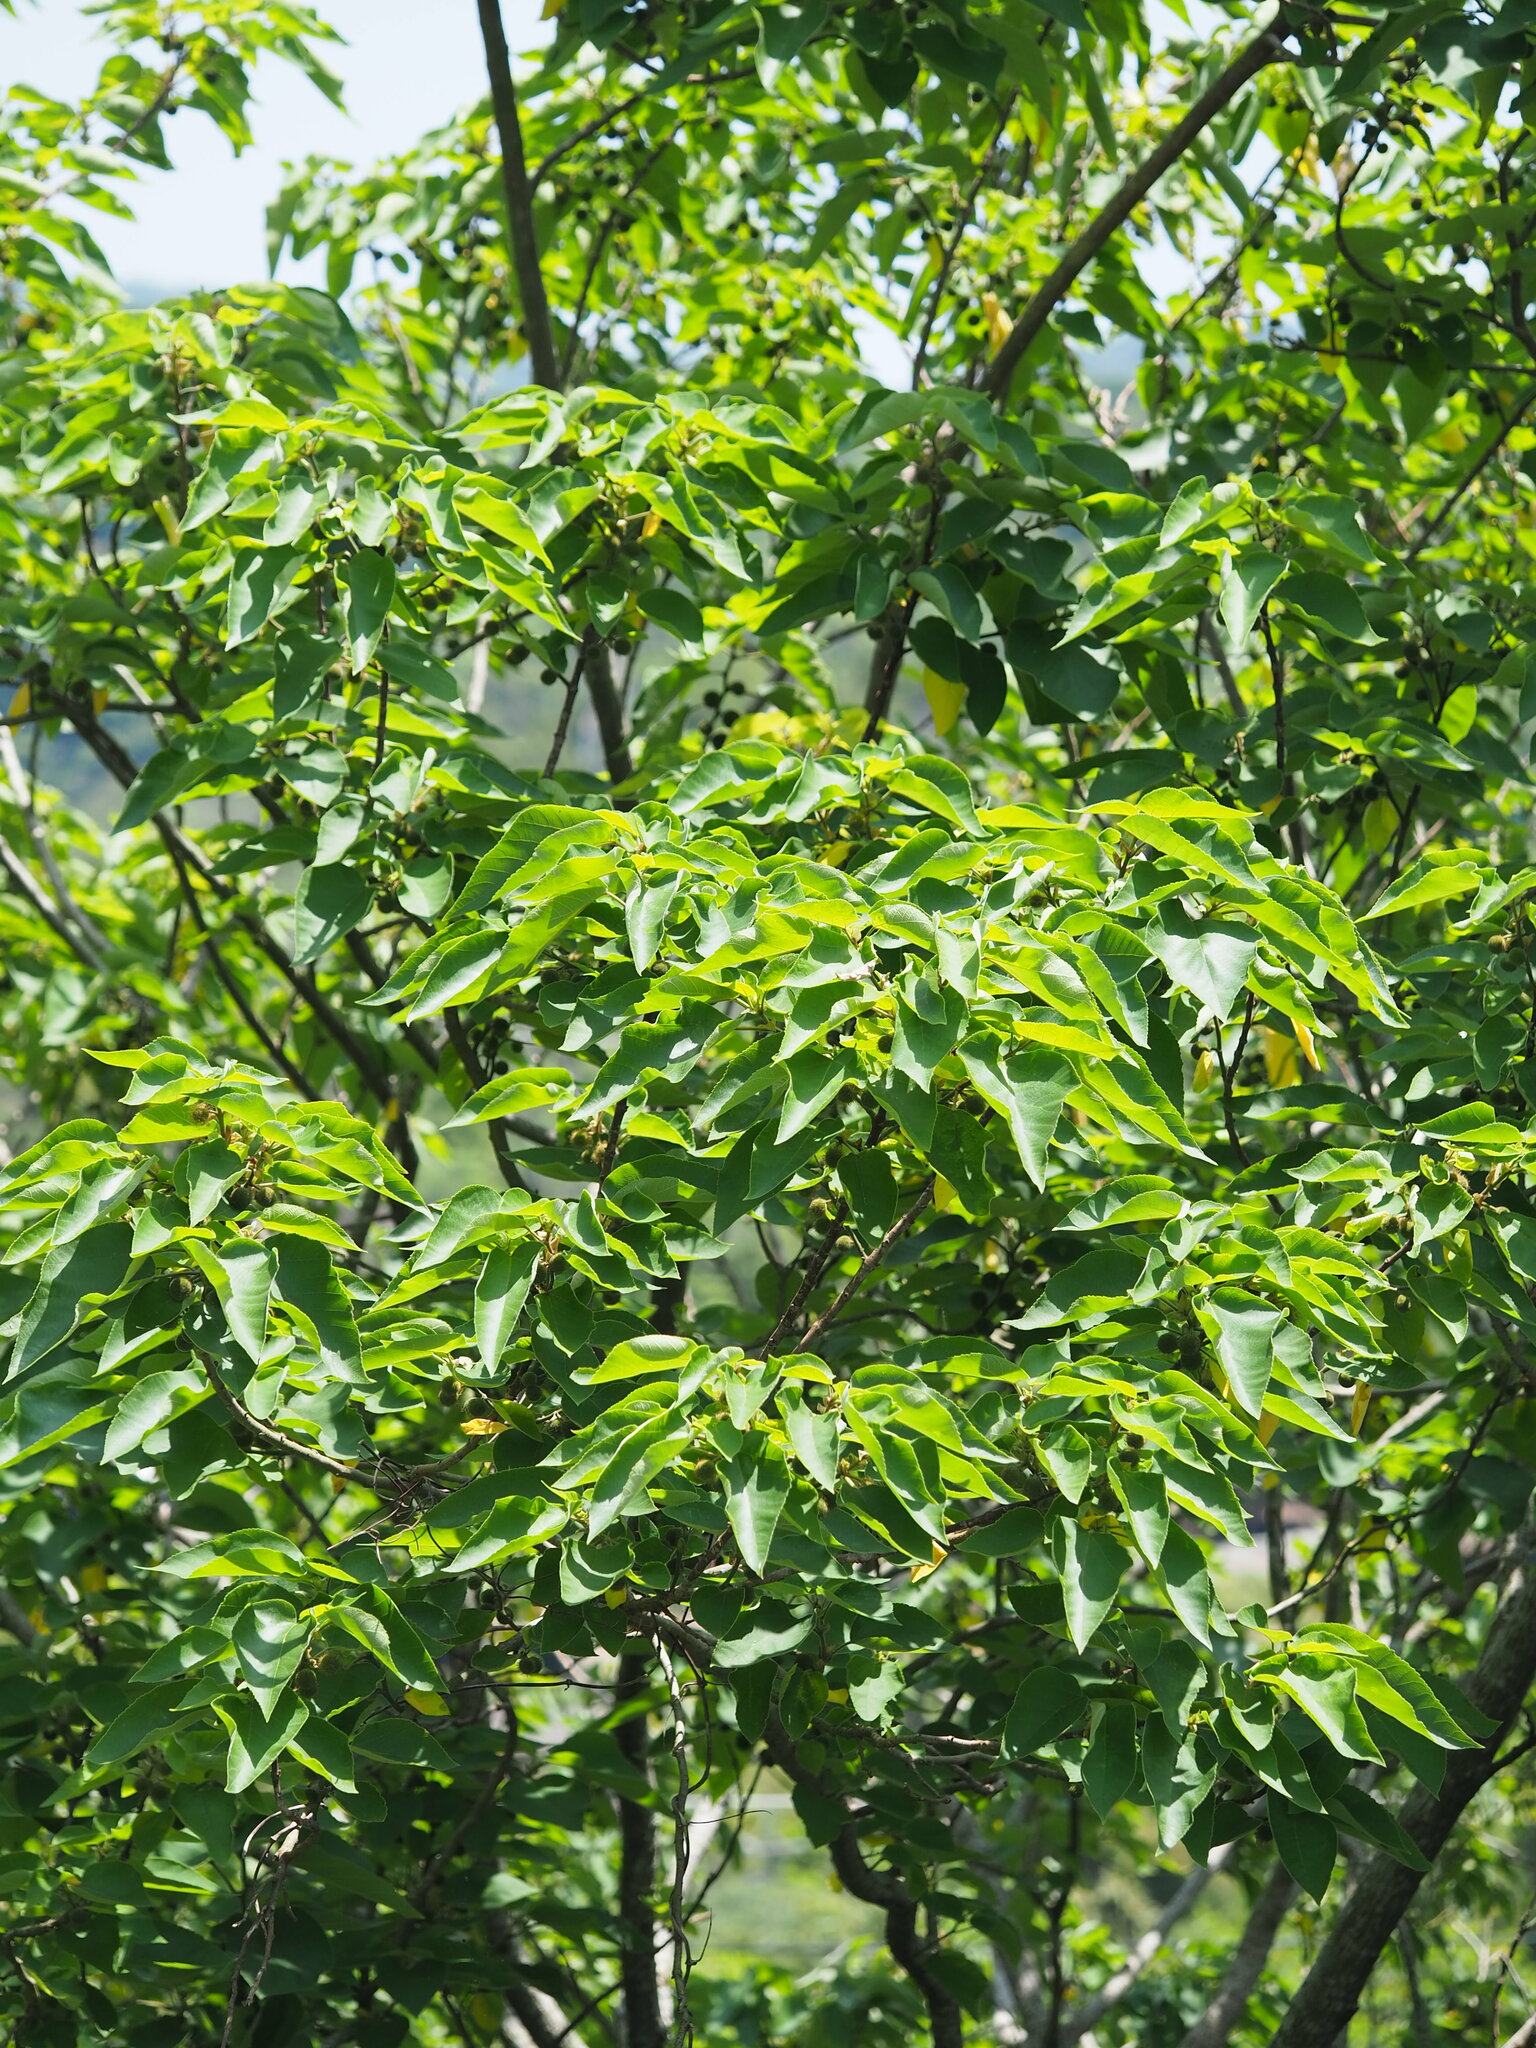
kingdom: Plantae
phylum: Tracheophyta
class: Magnoliopsida
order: Rosales
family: Moraceae
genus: Broussonetia
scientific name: Broussonetia papyrifera
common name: Paper mulberry
